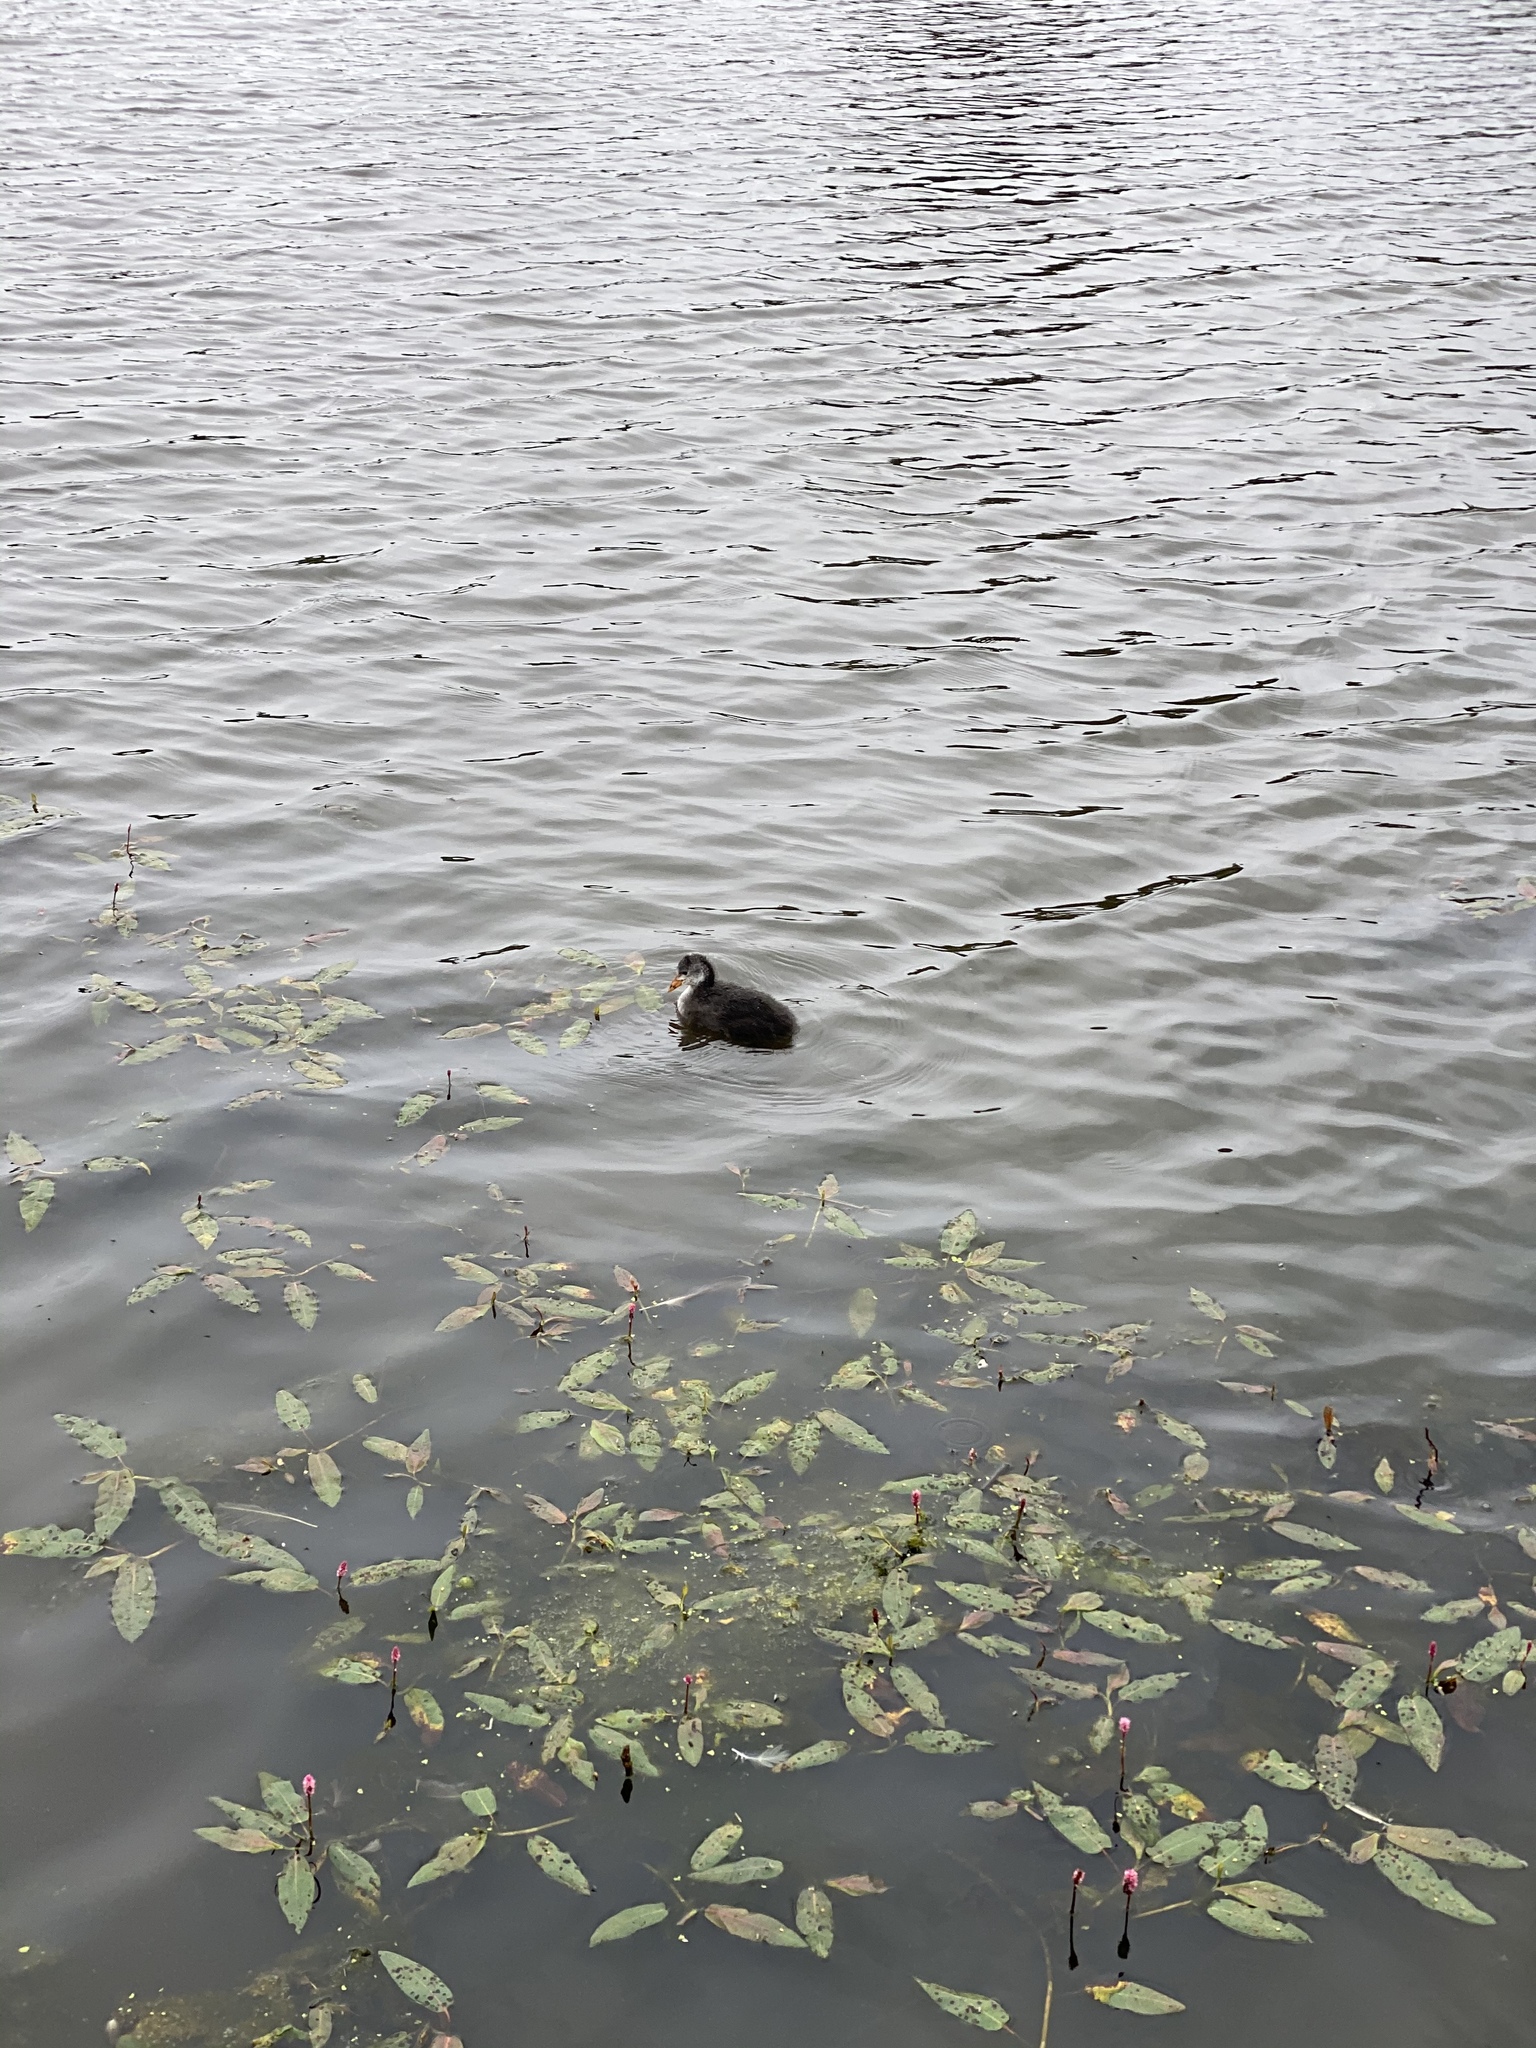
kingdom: Animalia
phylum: Chordata
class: Aves
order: Gruiformes
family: Rallidae
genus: Fulica
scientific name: Fulica atra
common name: Eurasian coot
